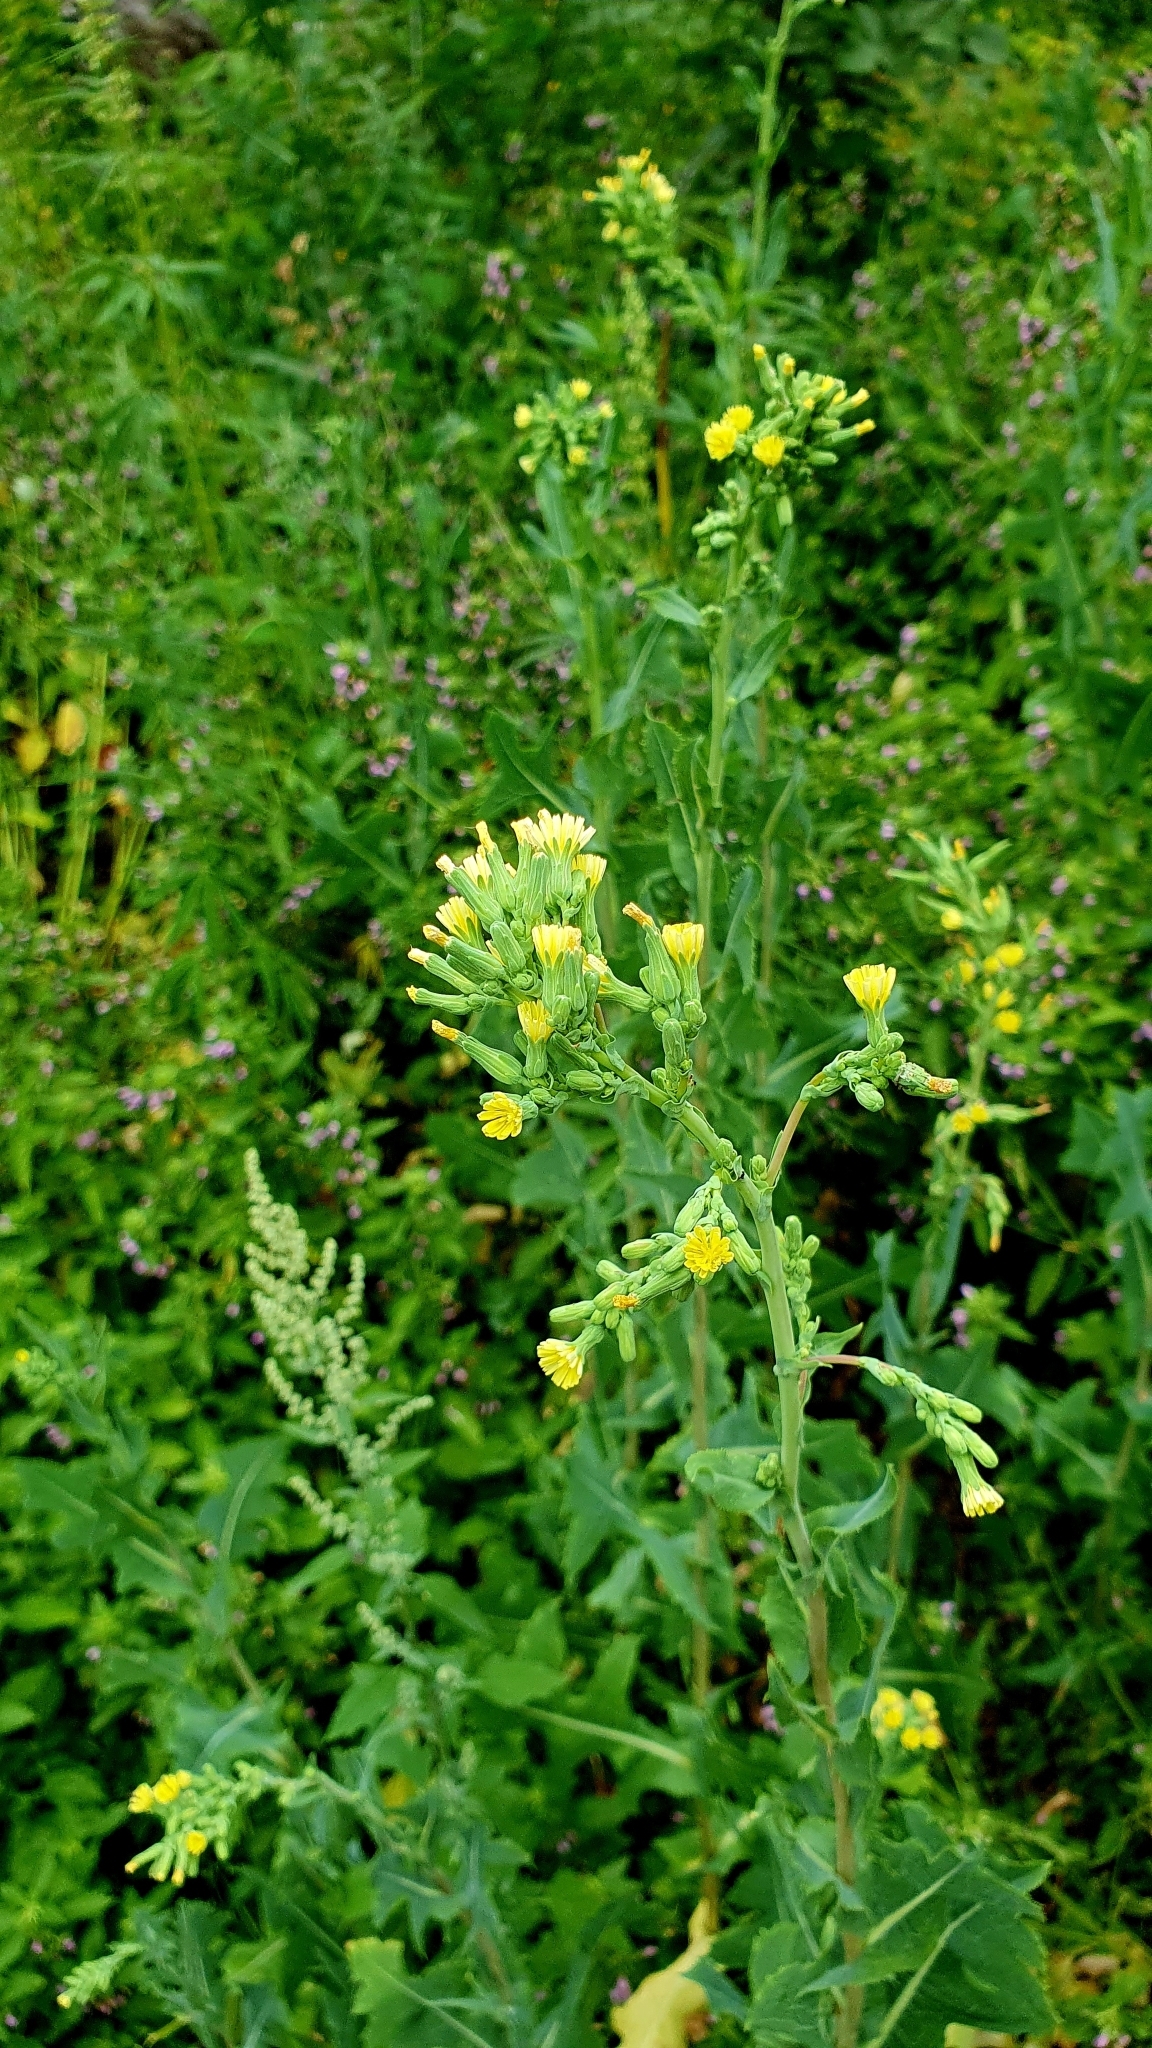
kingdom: Plantae
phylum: Tracheophyta
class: Magnoliopsida
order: Asterales
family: Asteraceae
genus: Lactuca
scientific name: Lactuca serriola
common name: Prickly lettuce
